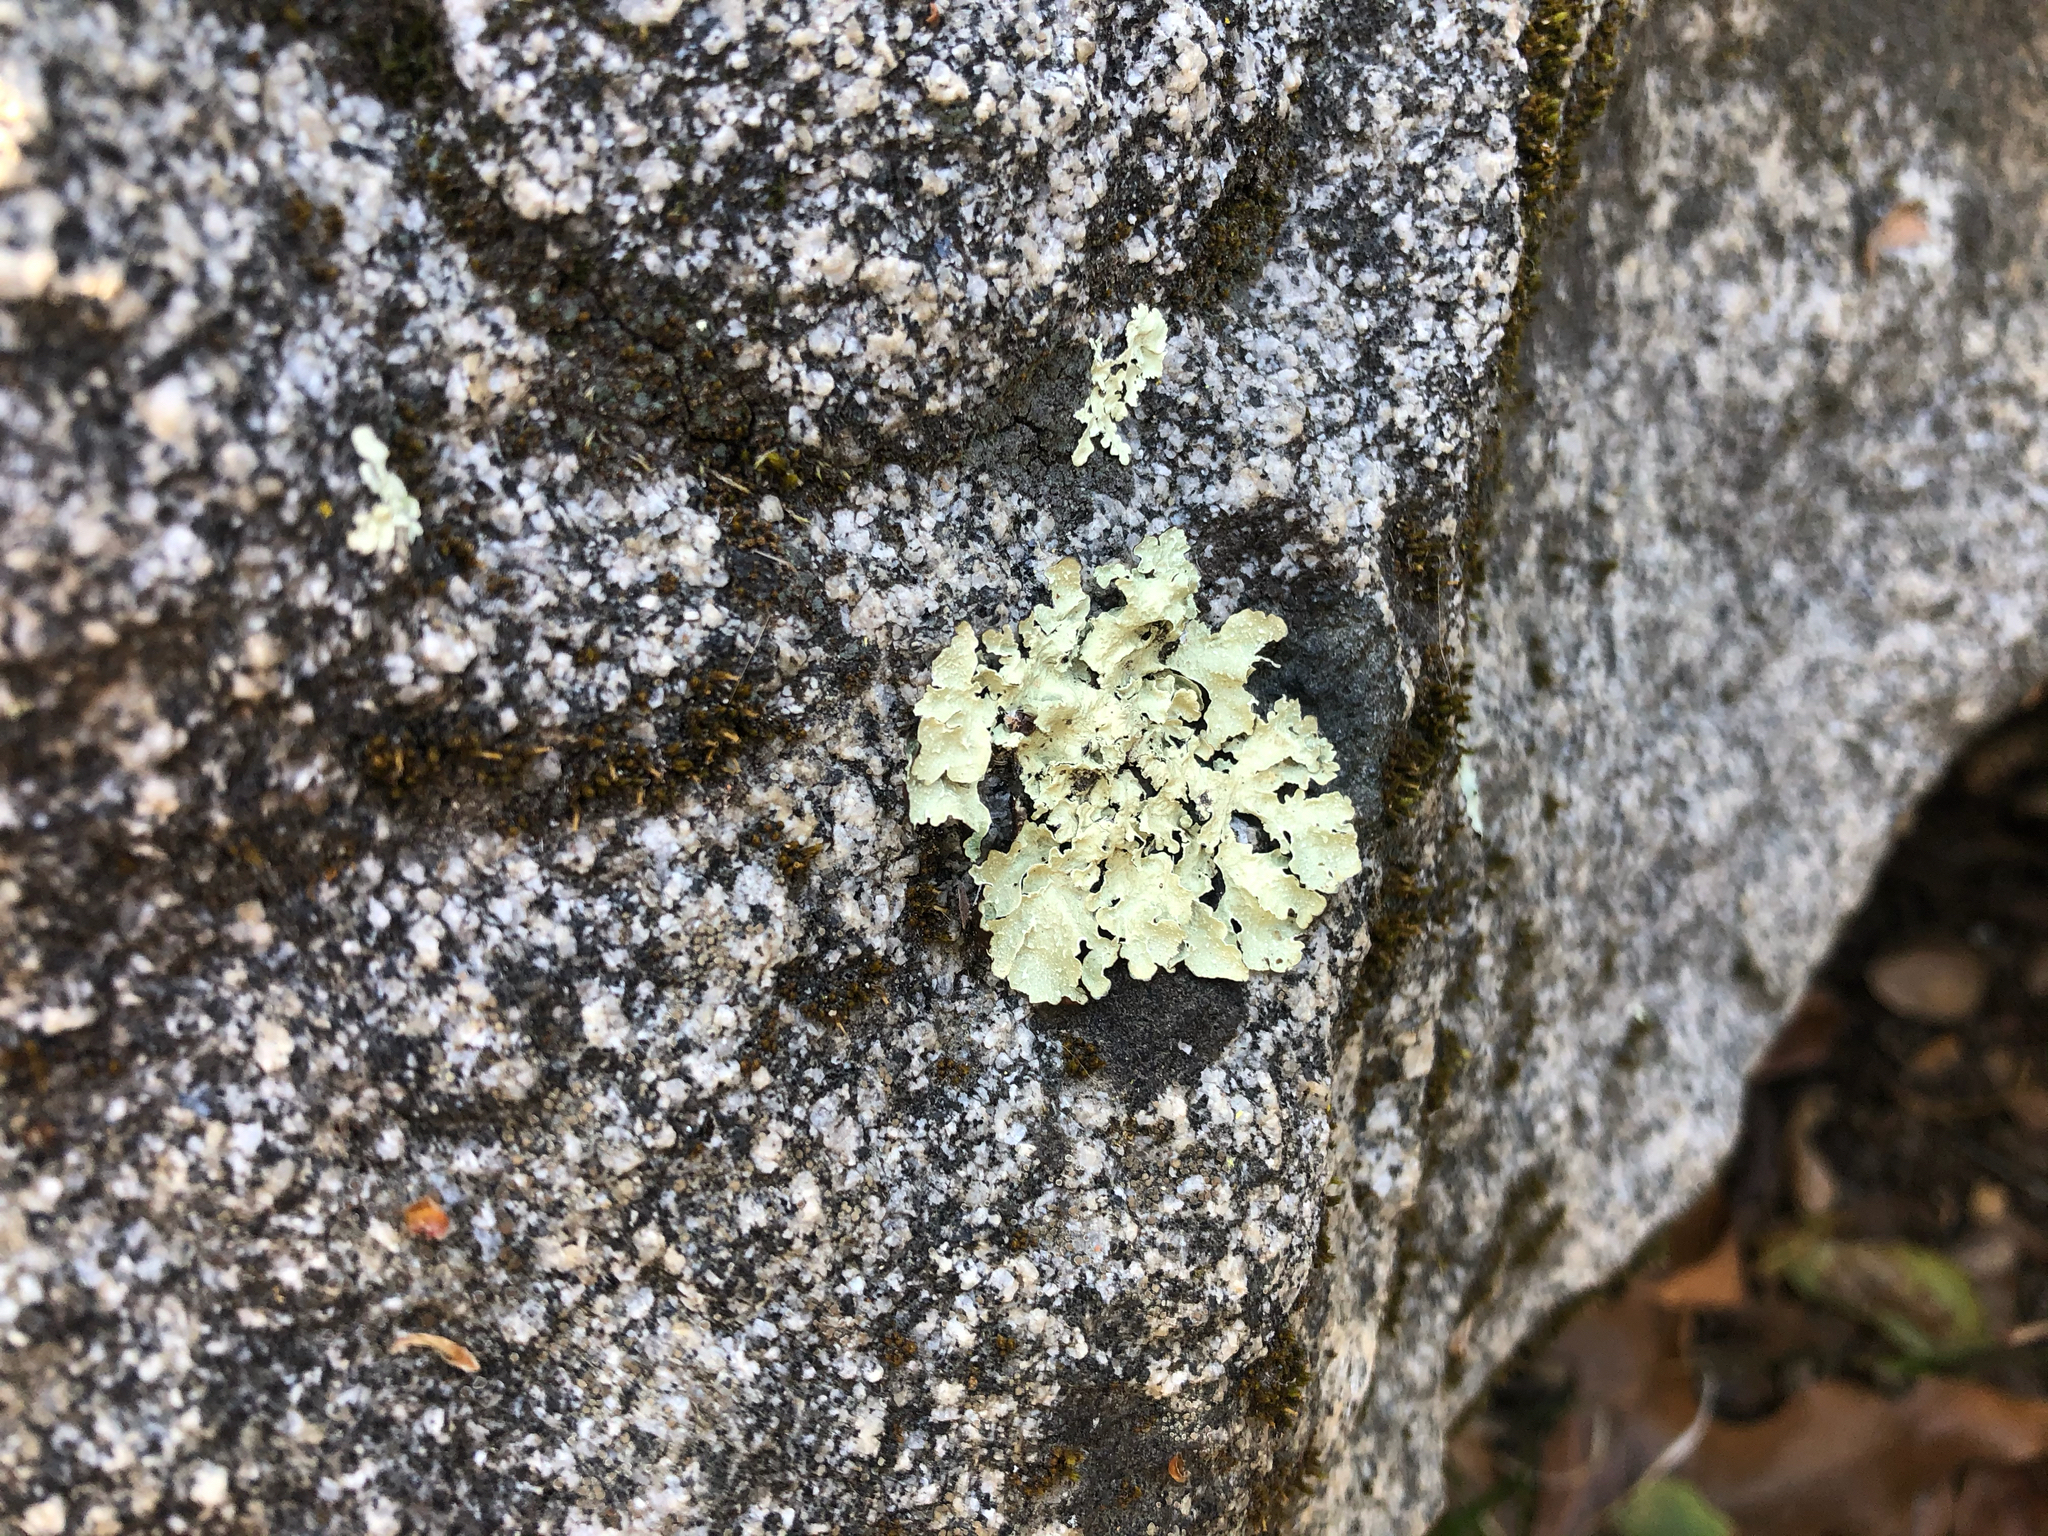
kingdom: Fungi
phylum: Ascomycota
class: Lecanoromycetes
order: Lecanorales
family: Parmeliaceae
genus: Flavopunctelia
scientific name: Flavopunctelia flaventior
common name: Speckled greenshield
